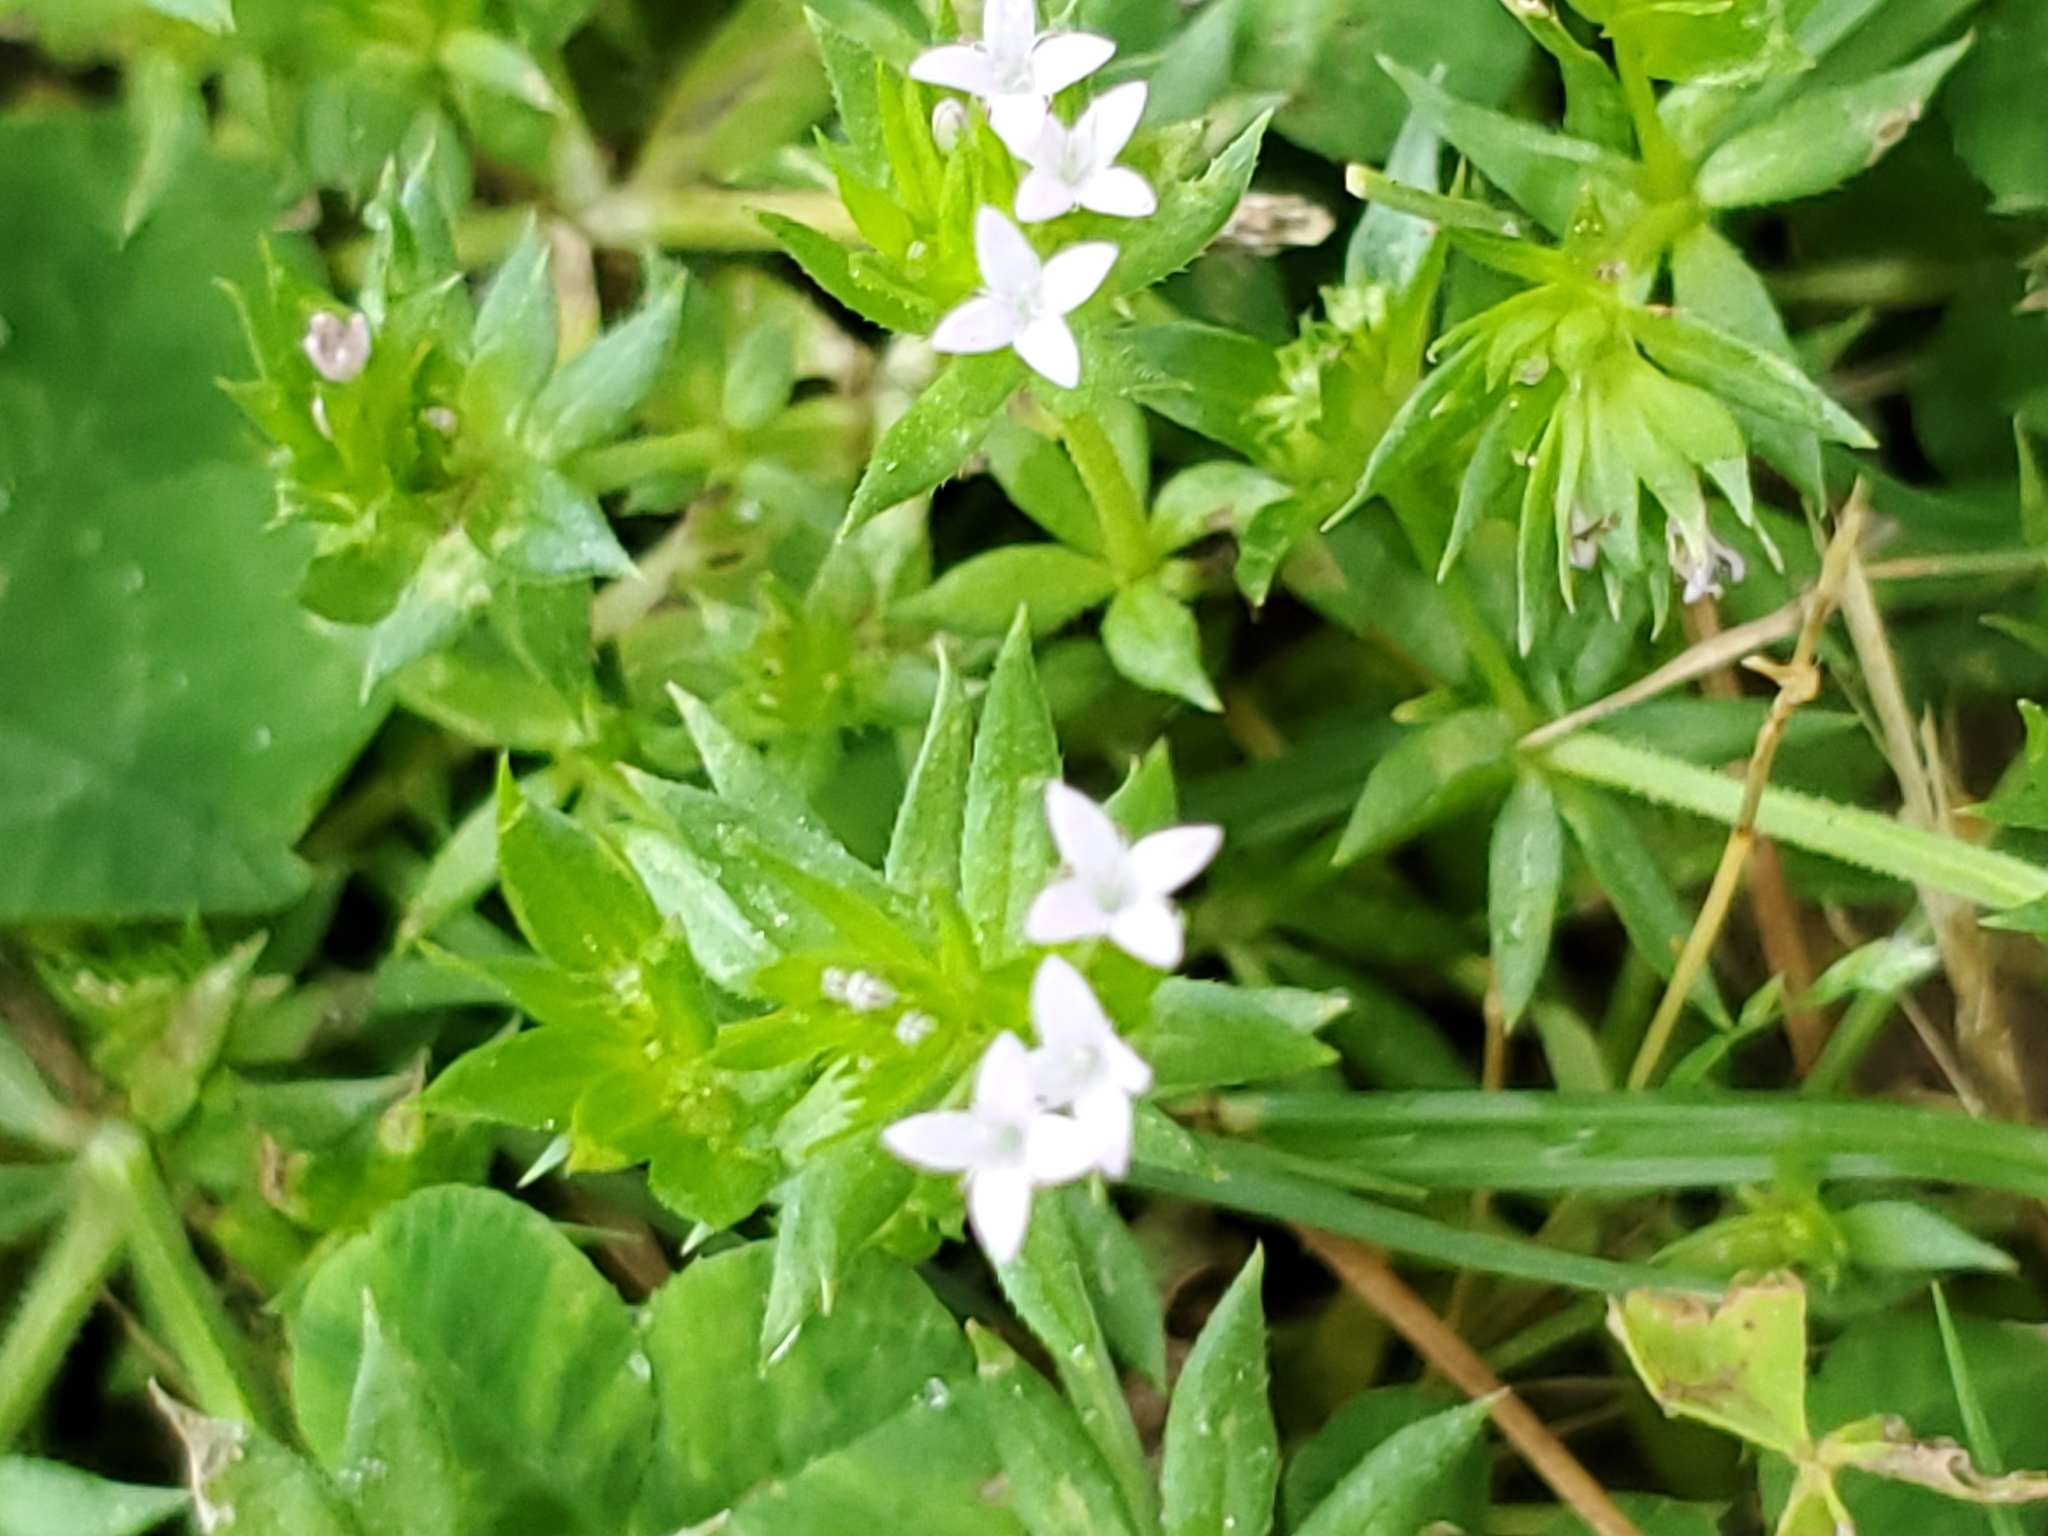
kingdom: Plantae
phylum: Tracheophyta
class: Magnoliopsida
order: Gentianales
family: Rubiaceae
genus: Sherardia
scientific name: Sherardia arvensis
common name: Field madder
